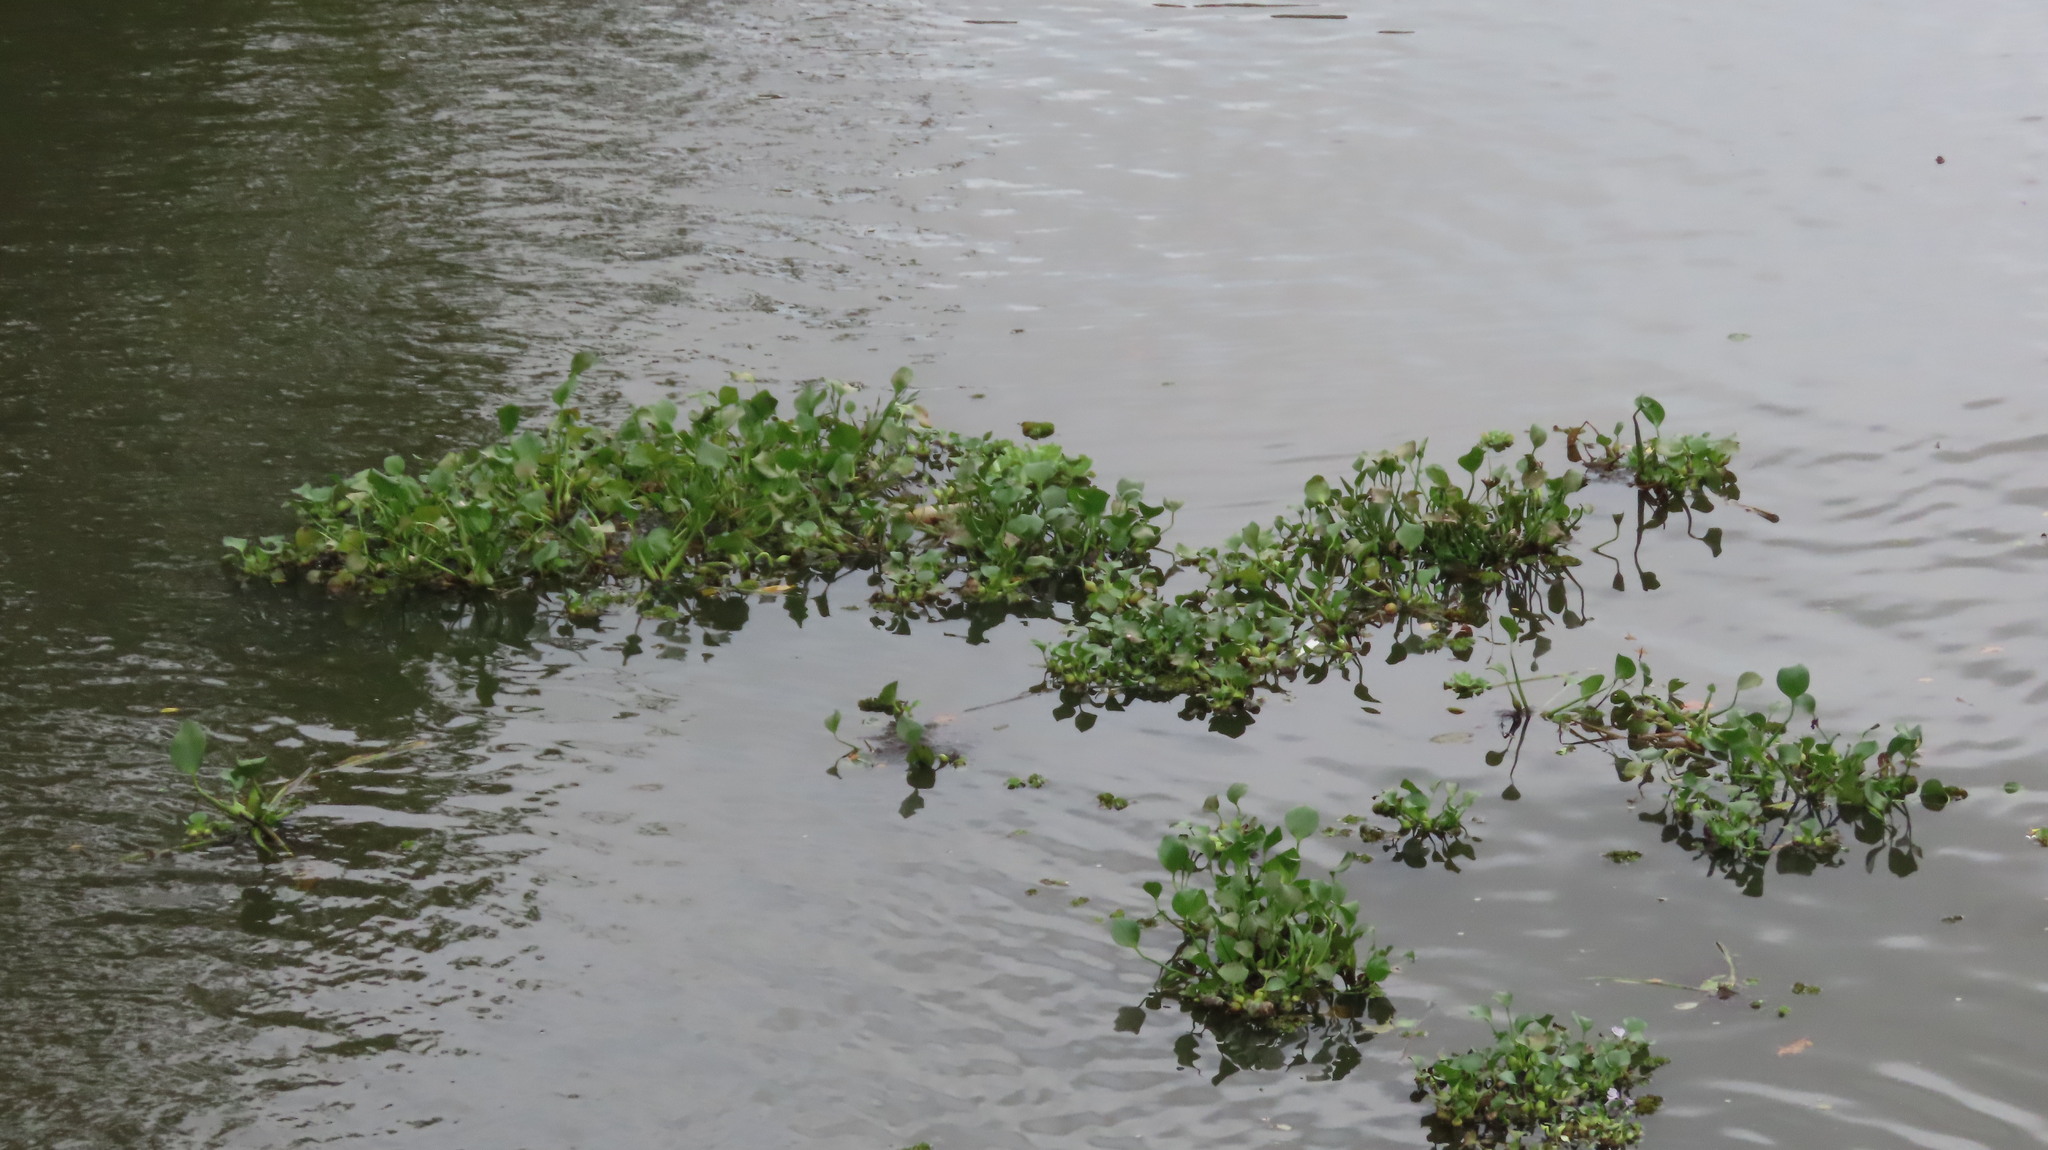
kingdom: Plantae
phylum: Tracheophyta
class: Liliopsida
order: Commelinales
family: Pontederiaceae
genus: Pontederia
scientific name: Pontederia crassipes
